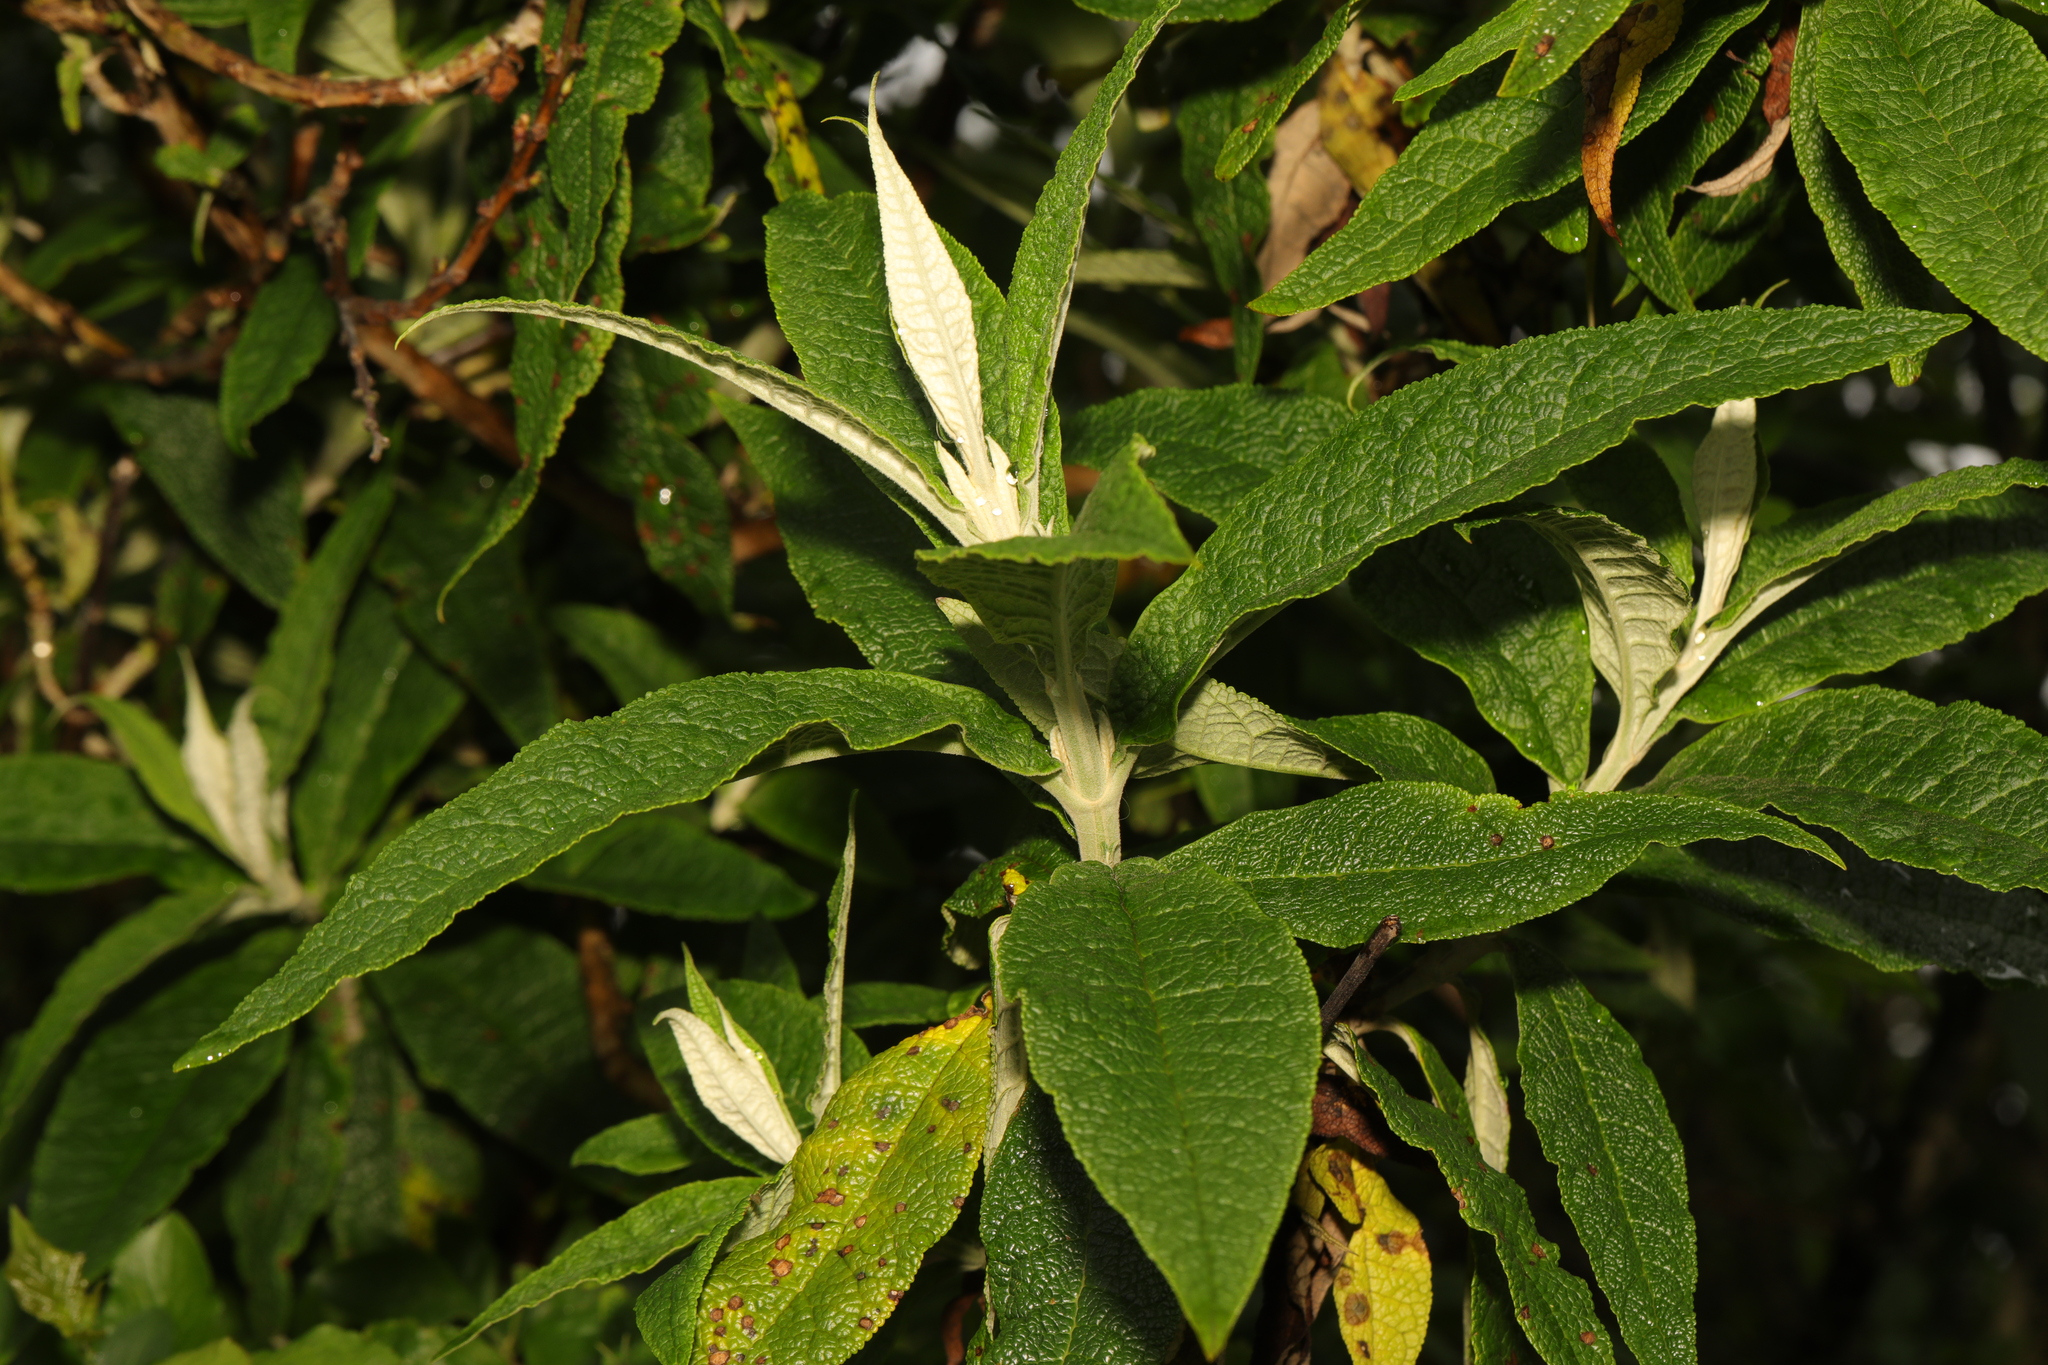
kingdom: Plantae
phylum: Tracheophyta
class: Magnoliopsida
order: Lamiales
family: Scrophulariaceae
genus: Buddleja
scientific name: Buddleja globosa
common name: Orange-ball-tree
